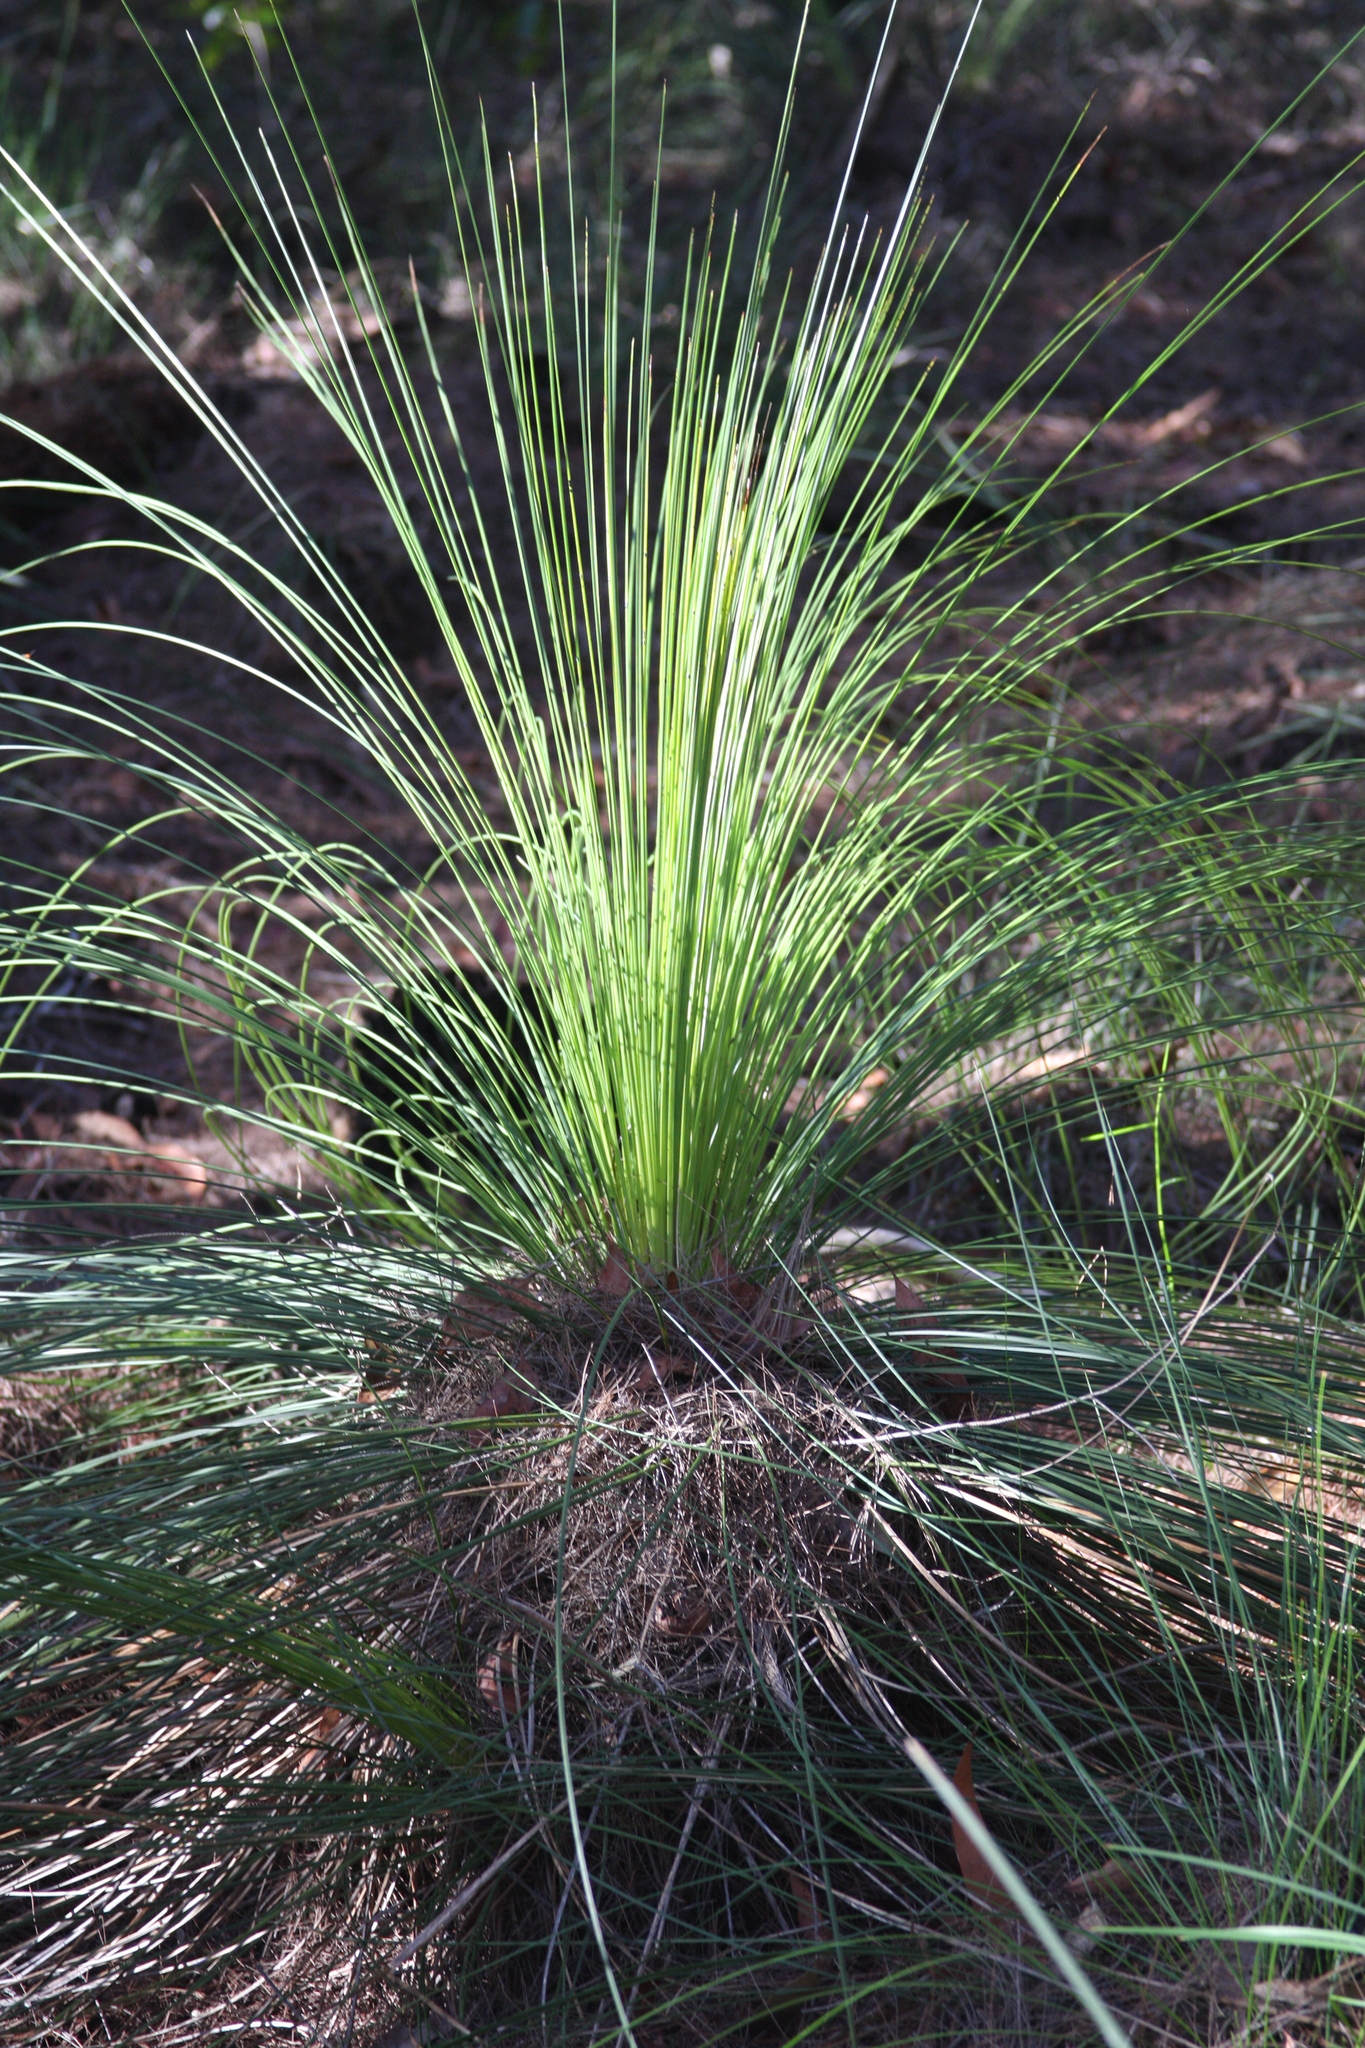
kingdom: Plantae
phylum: Tracheophyta
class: Liliopsida
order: Asparagales
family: Asphodelaceae
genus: Xanthorrhoea
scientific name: Xanthorrhoea media
